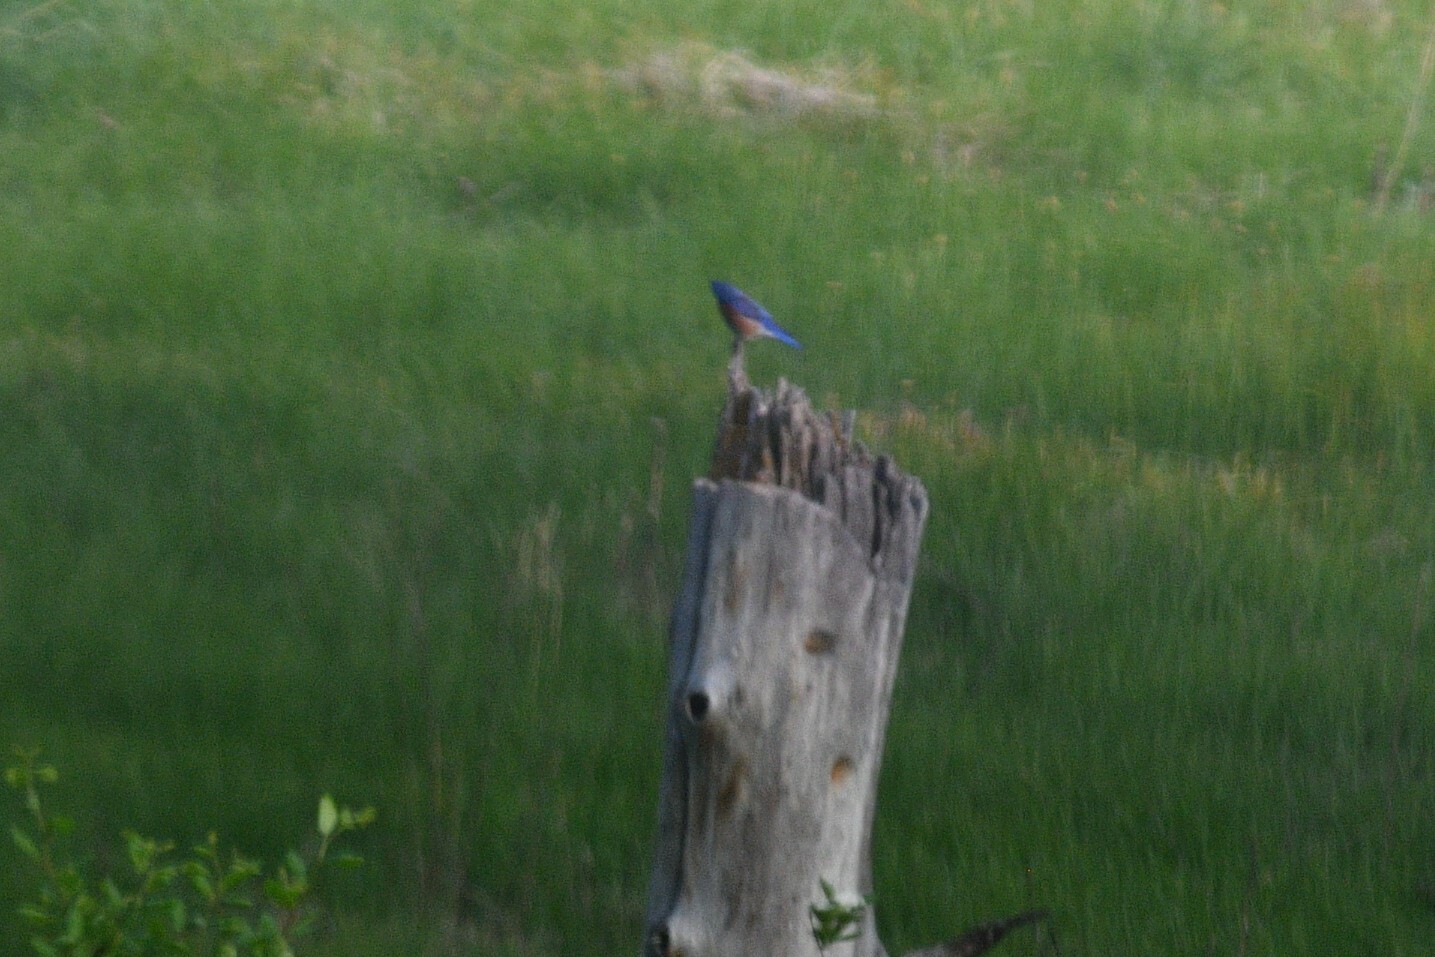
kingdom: Animalia
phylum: Chordata
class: Aves
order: Passeriformes
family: Turdidae
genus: Sialia
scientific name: Sialia mexicana
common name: Western bluebird
